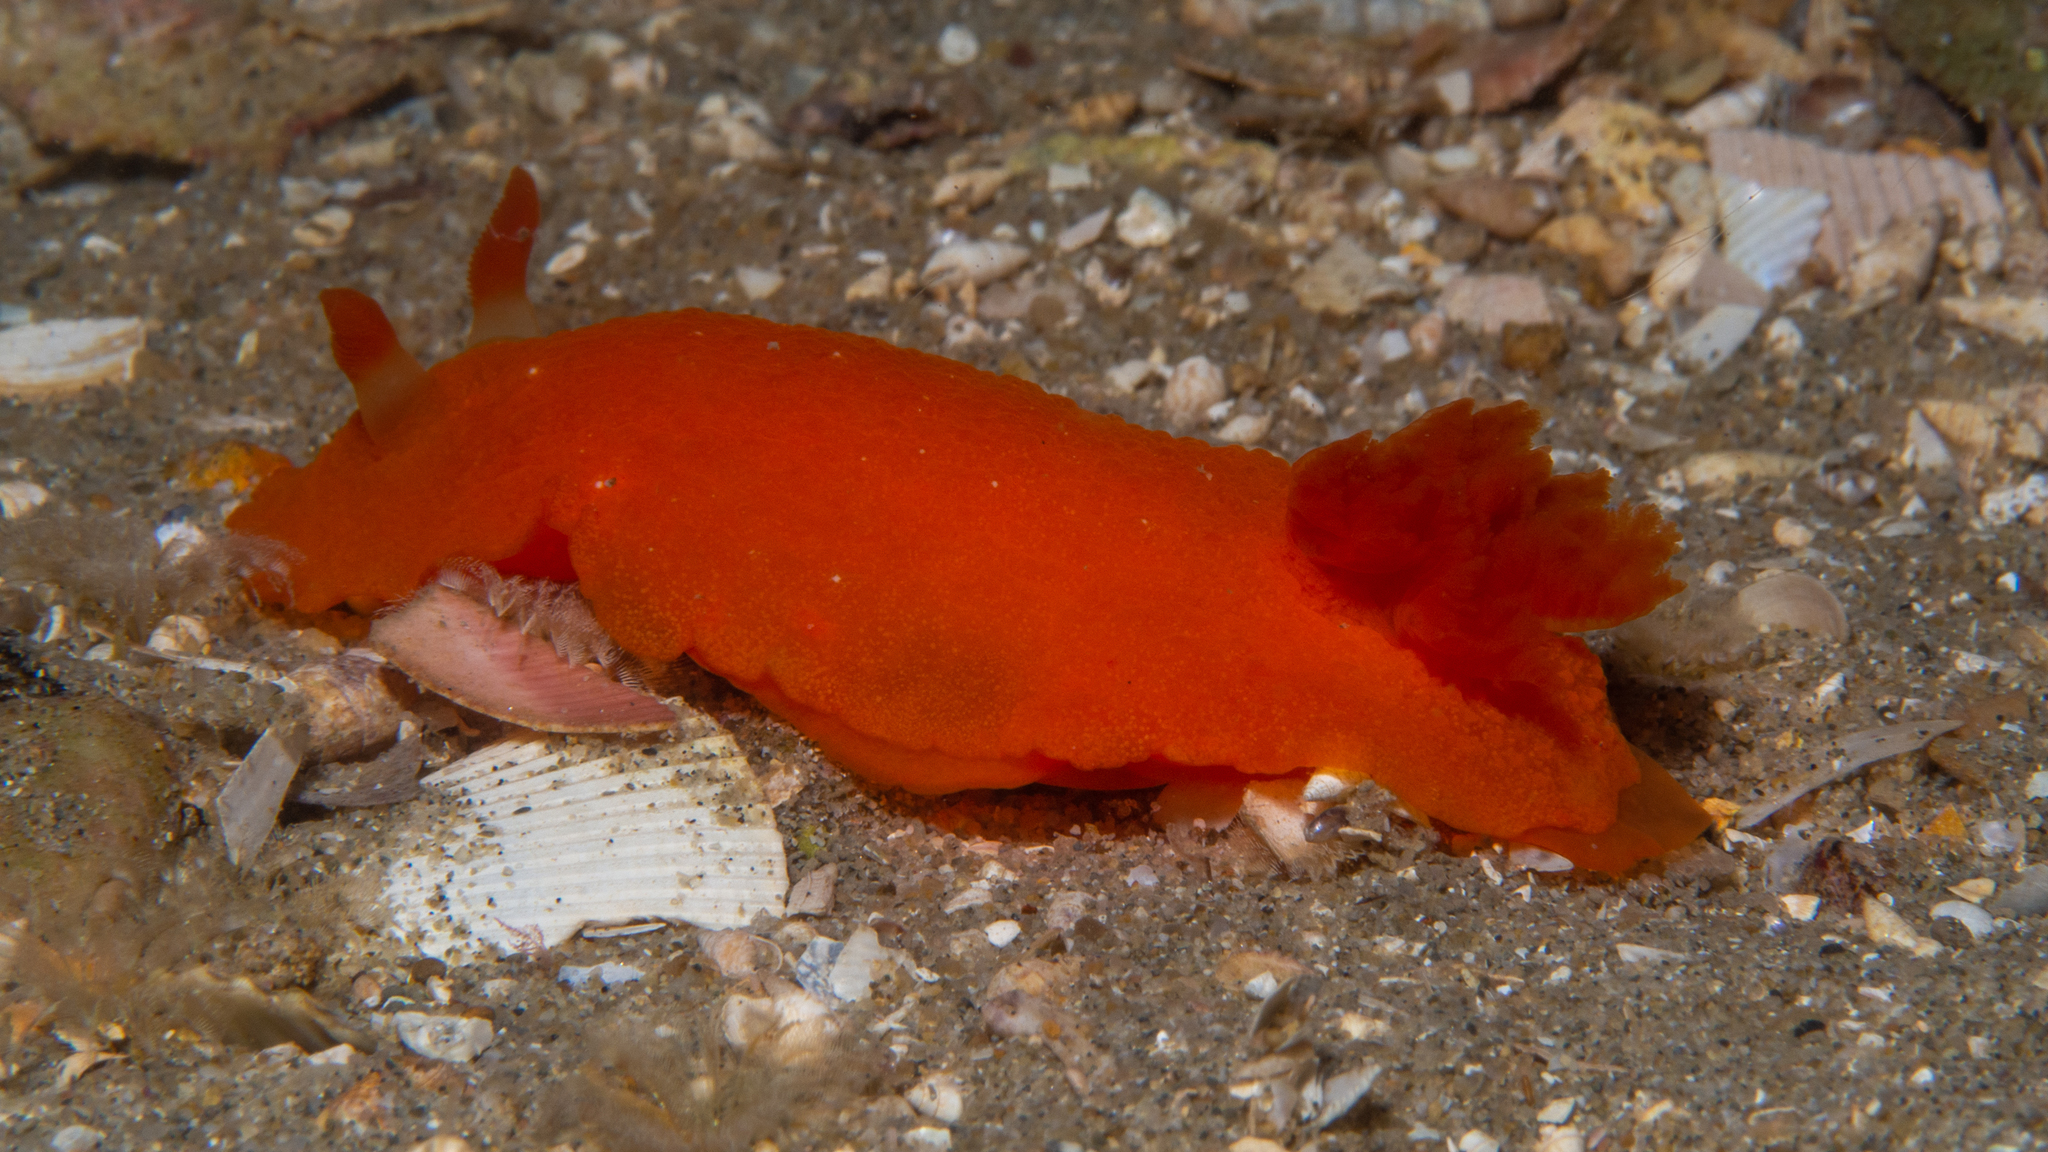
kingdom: Animalia
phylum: Mollusca
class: Gastropoda
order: Nudibranchia
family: Dendrodorididae
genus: Doriopsilla
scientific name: Doriopsilla carneola
